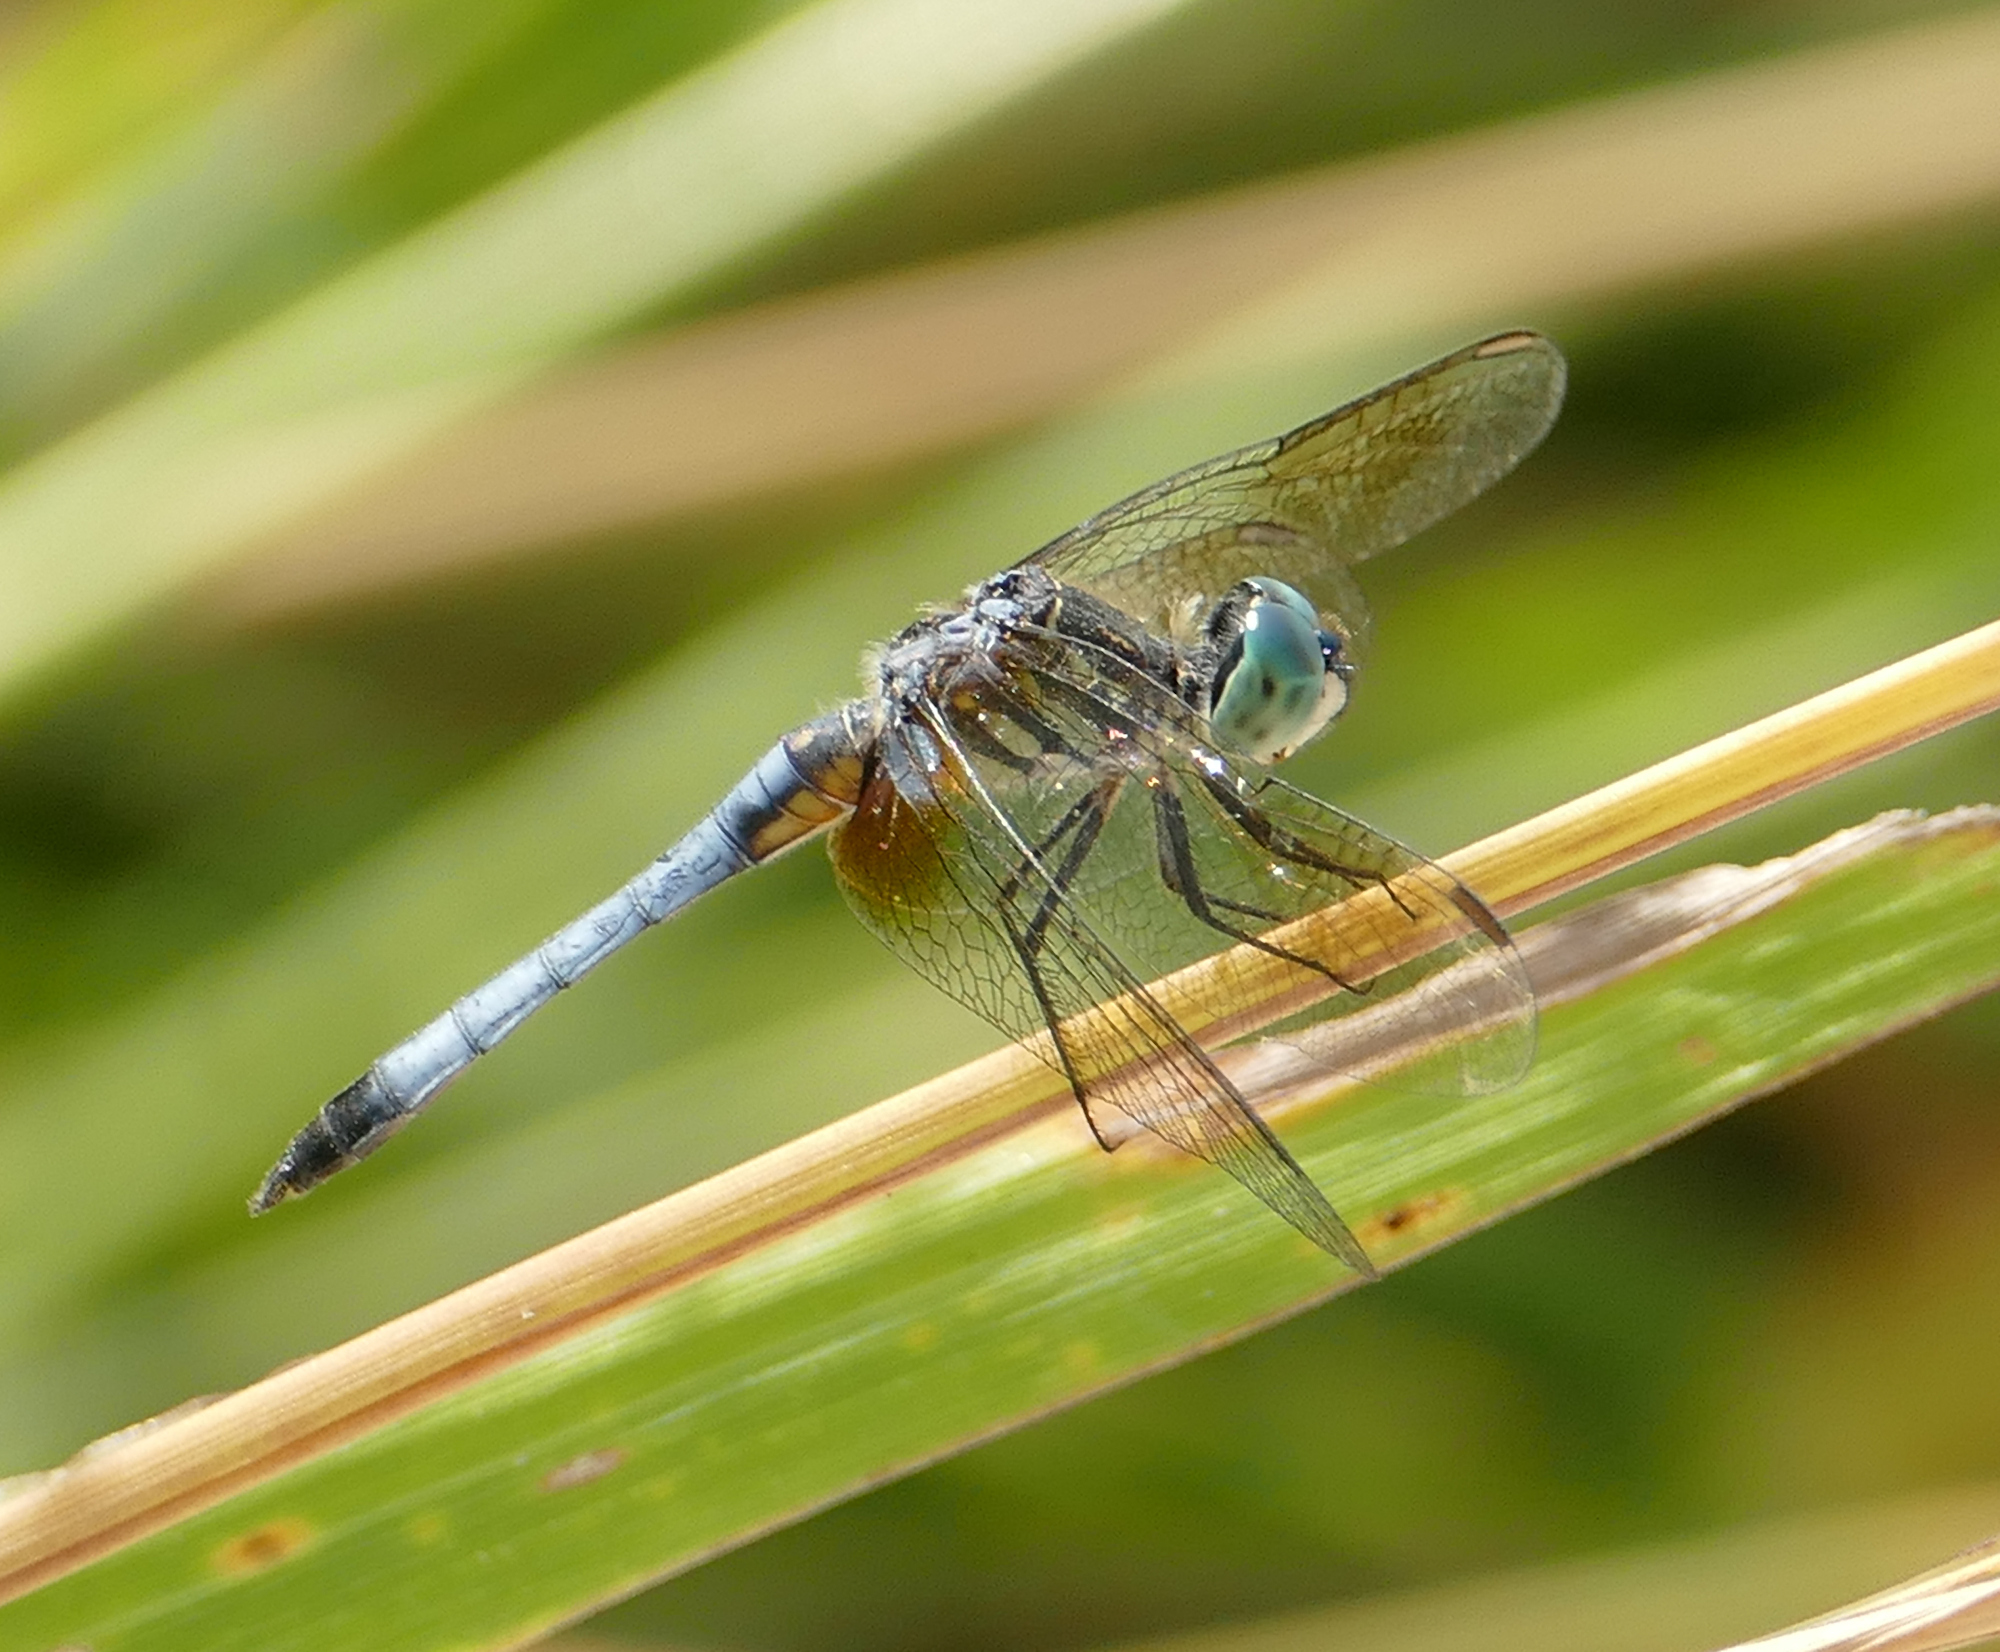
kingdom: Animalia
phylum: Arthropoda
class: Insecta
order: Odonata
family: Libellulidae
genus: Pachydiplax
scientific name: Pachydiplax longipennis
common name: Blue dasher
